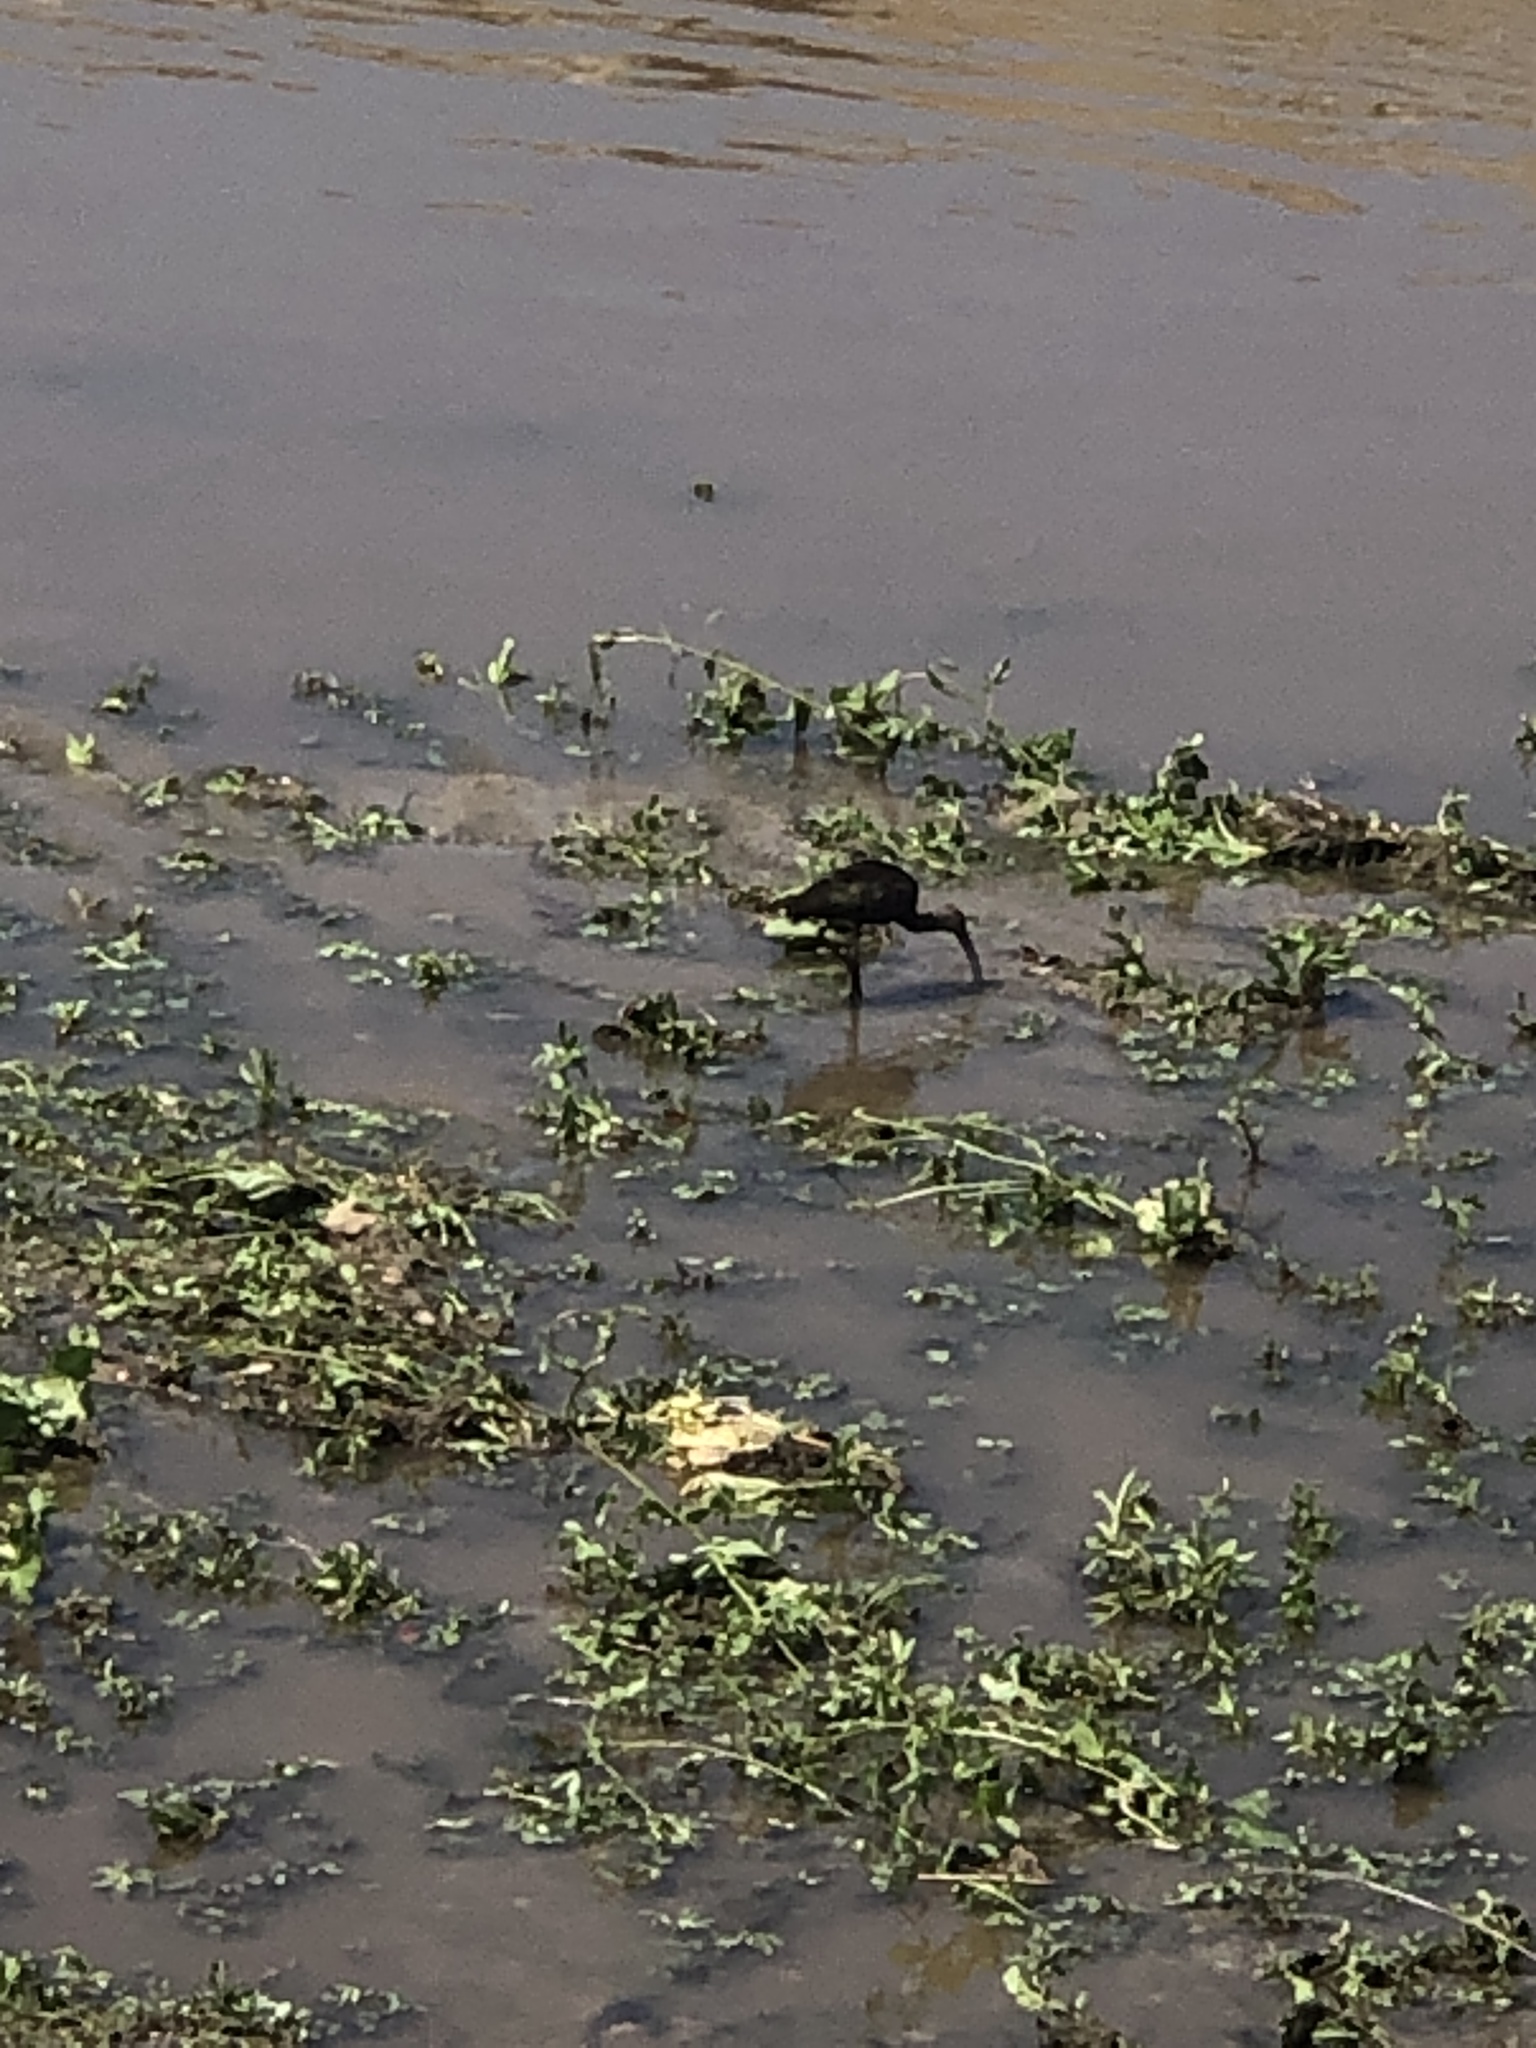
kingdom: Animalia
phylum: Chordata
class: Aves
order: Pelecaniformes
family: Threskiornithidae
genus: Plegadis
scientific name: Plegadis chihi
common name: White-faced ibis
